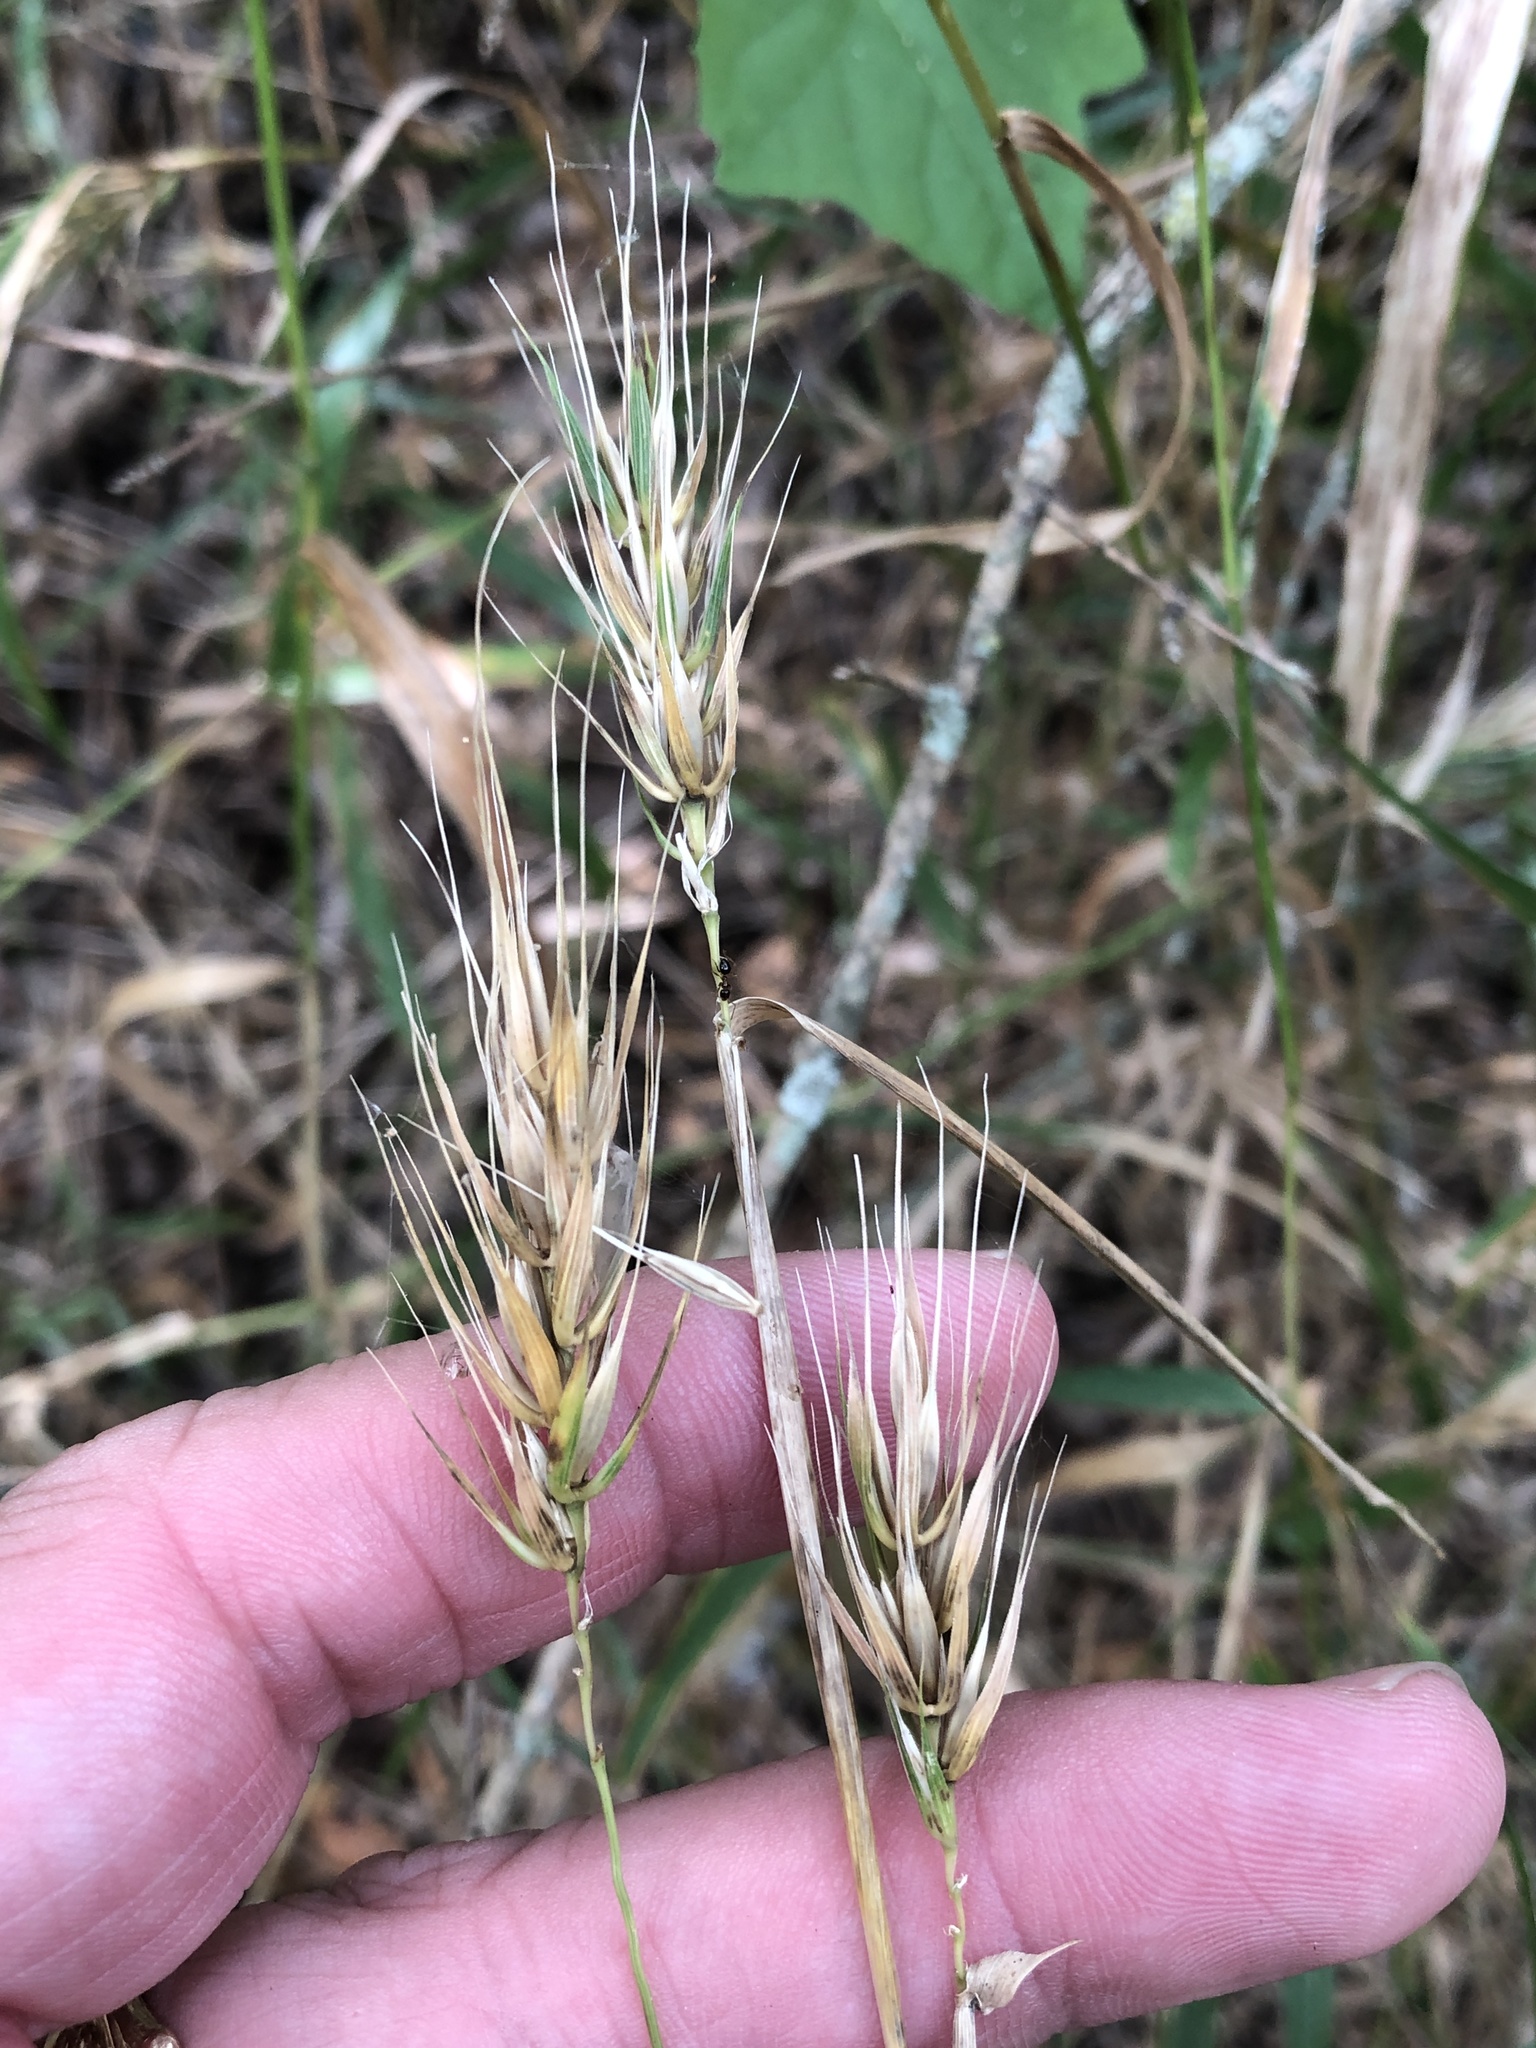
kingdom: Plantae
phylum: Tracheophyta
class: Liliopsida
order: Poales
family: Poaceae
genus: Elymus
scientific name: Elymus virginicus
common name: Common eastern wildrye
